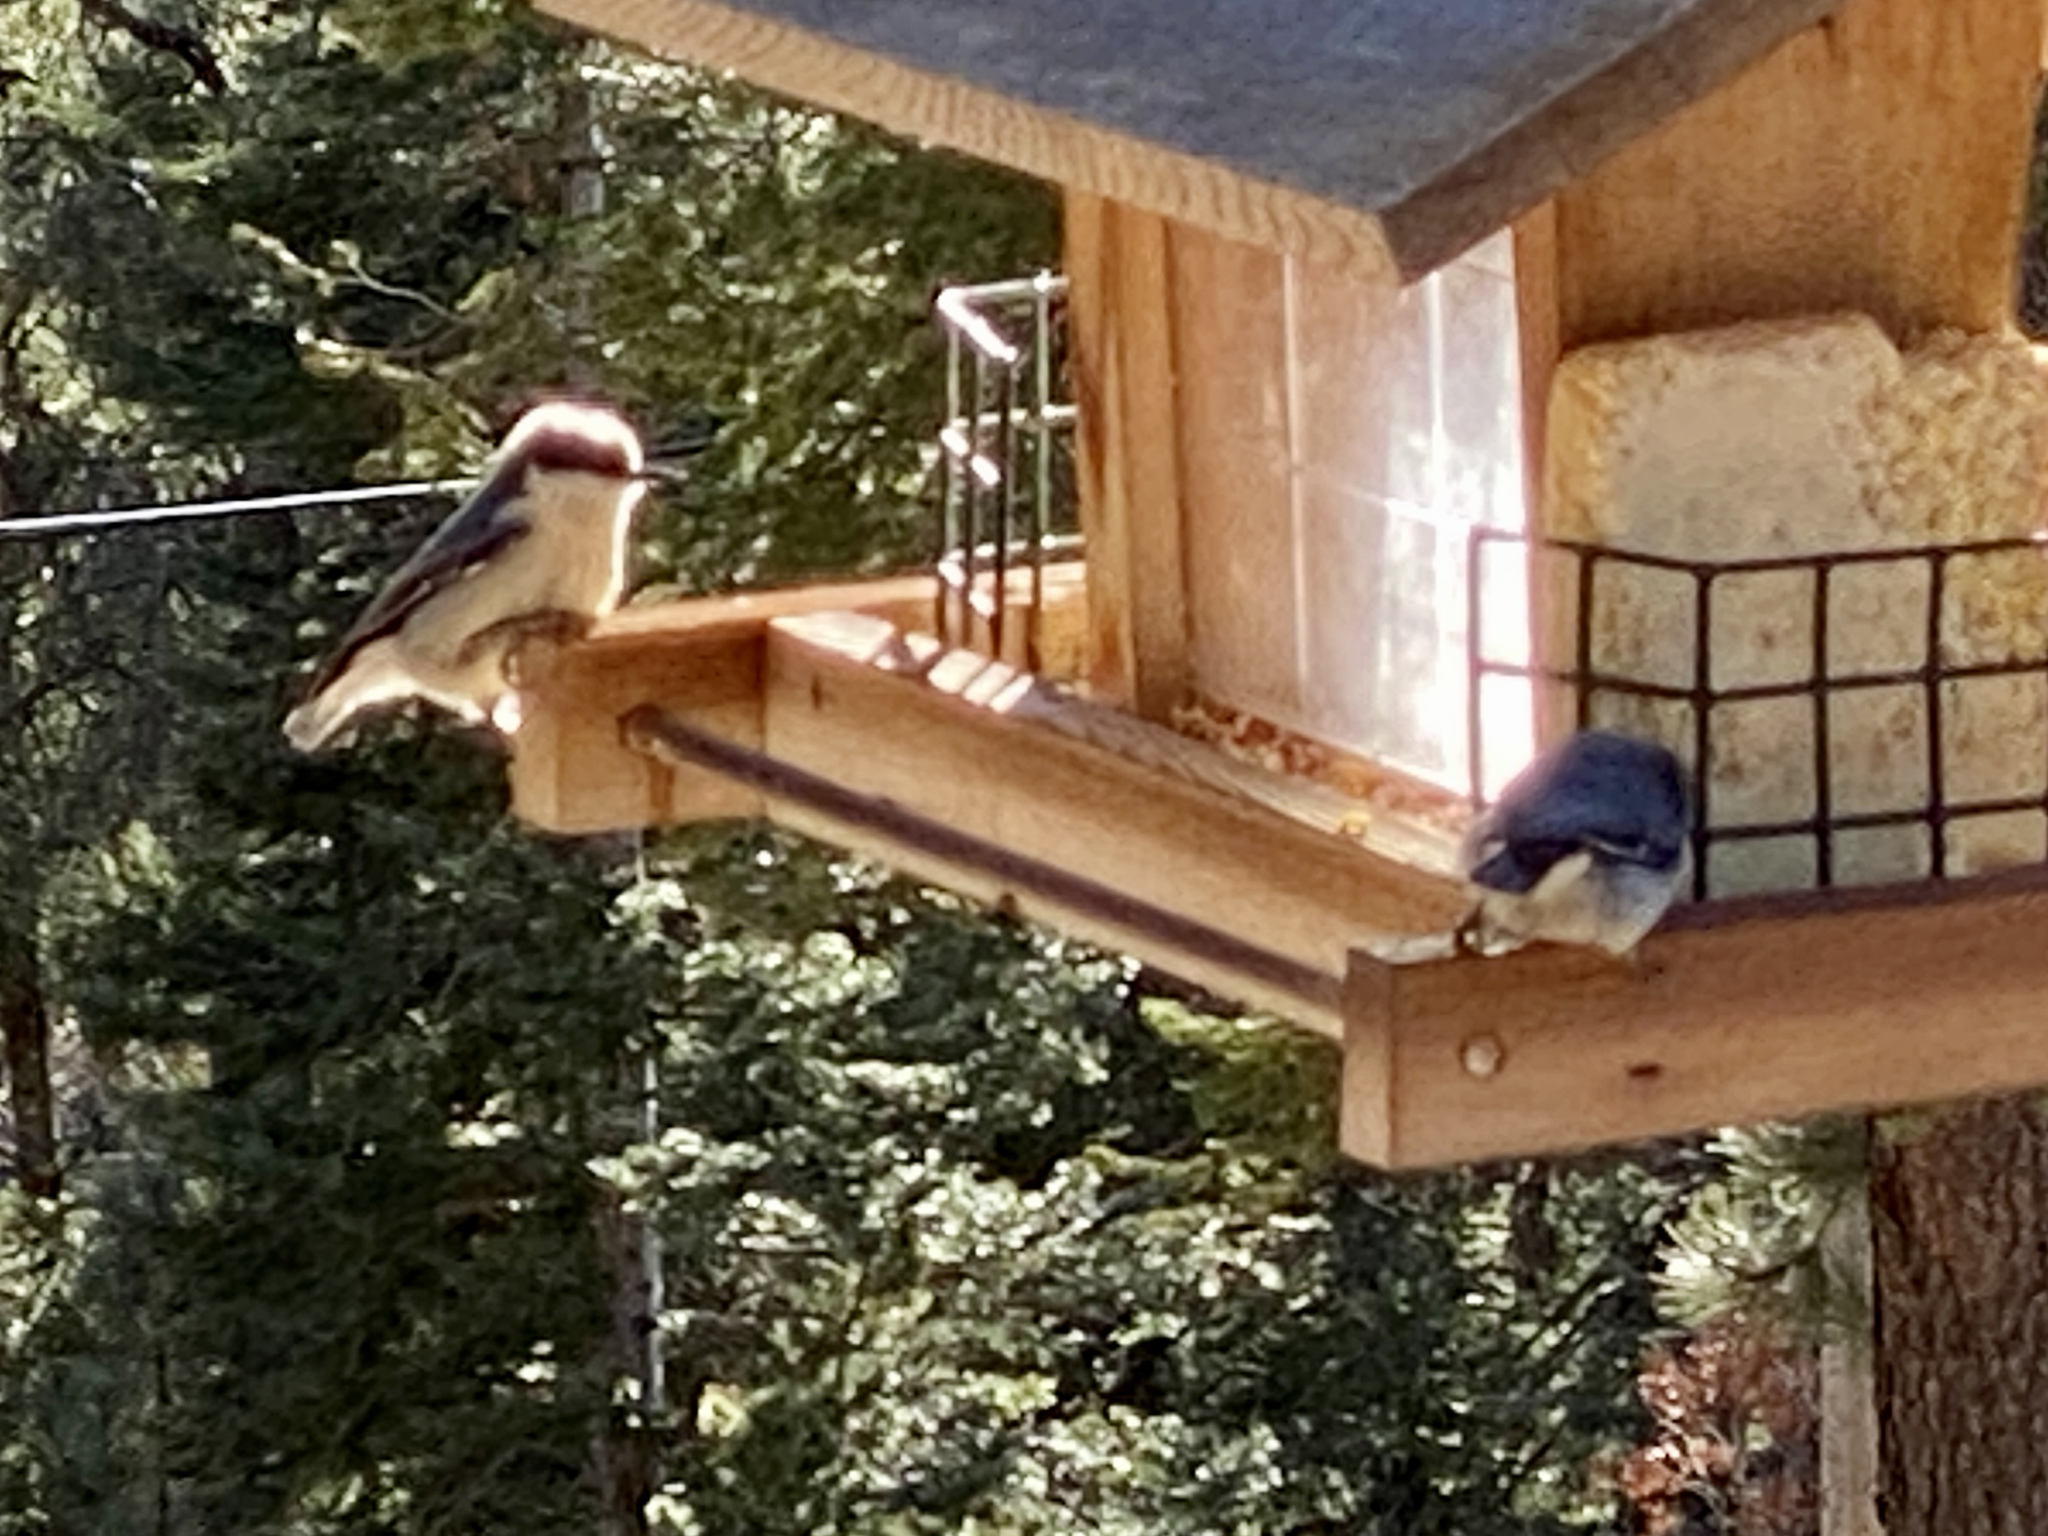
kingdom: Animalia
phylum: Chordata
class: Aves
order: Passeriformes
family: Sittidae
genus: Sitta
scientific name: Sitta pygmaea
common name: Pygmy nuthatch
